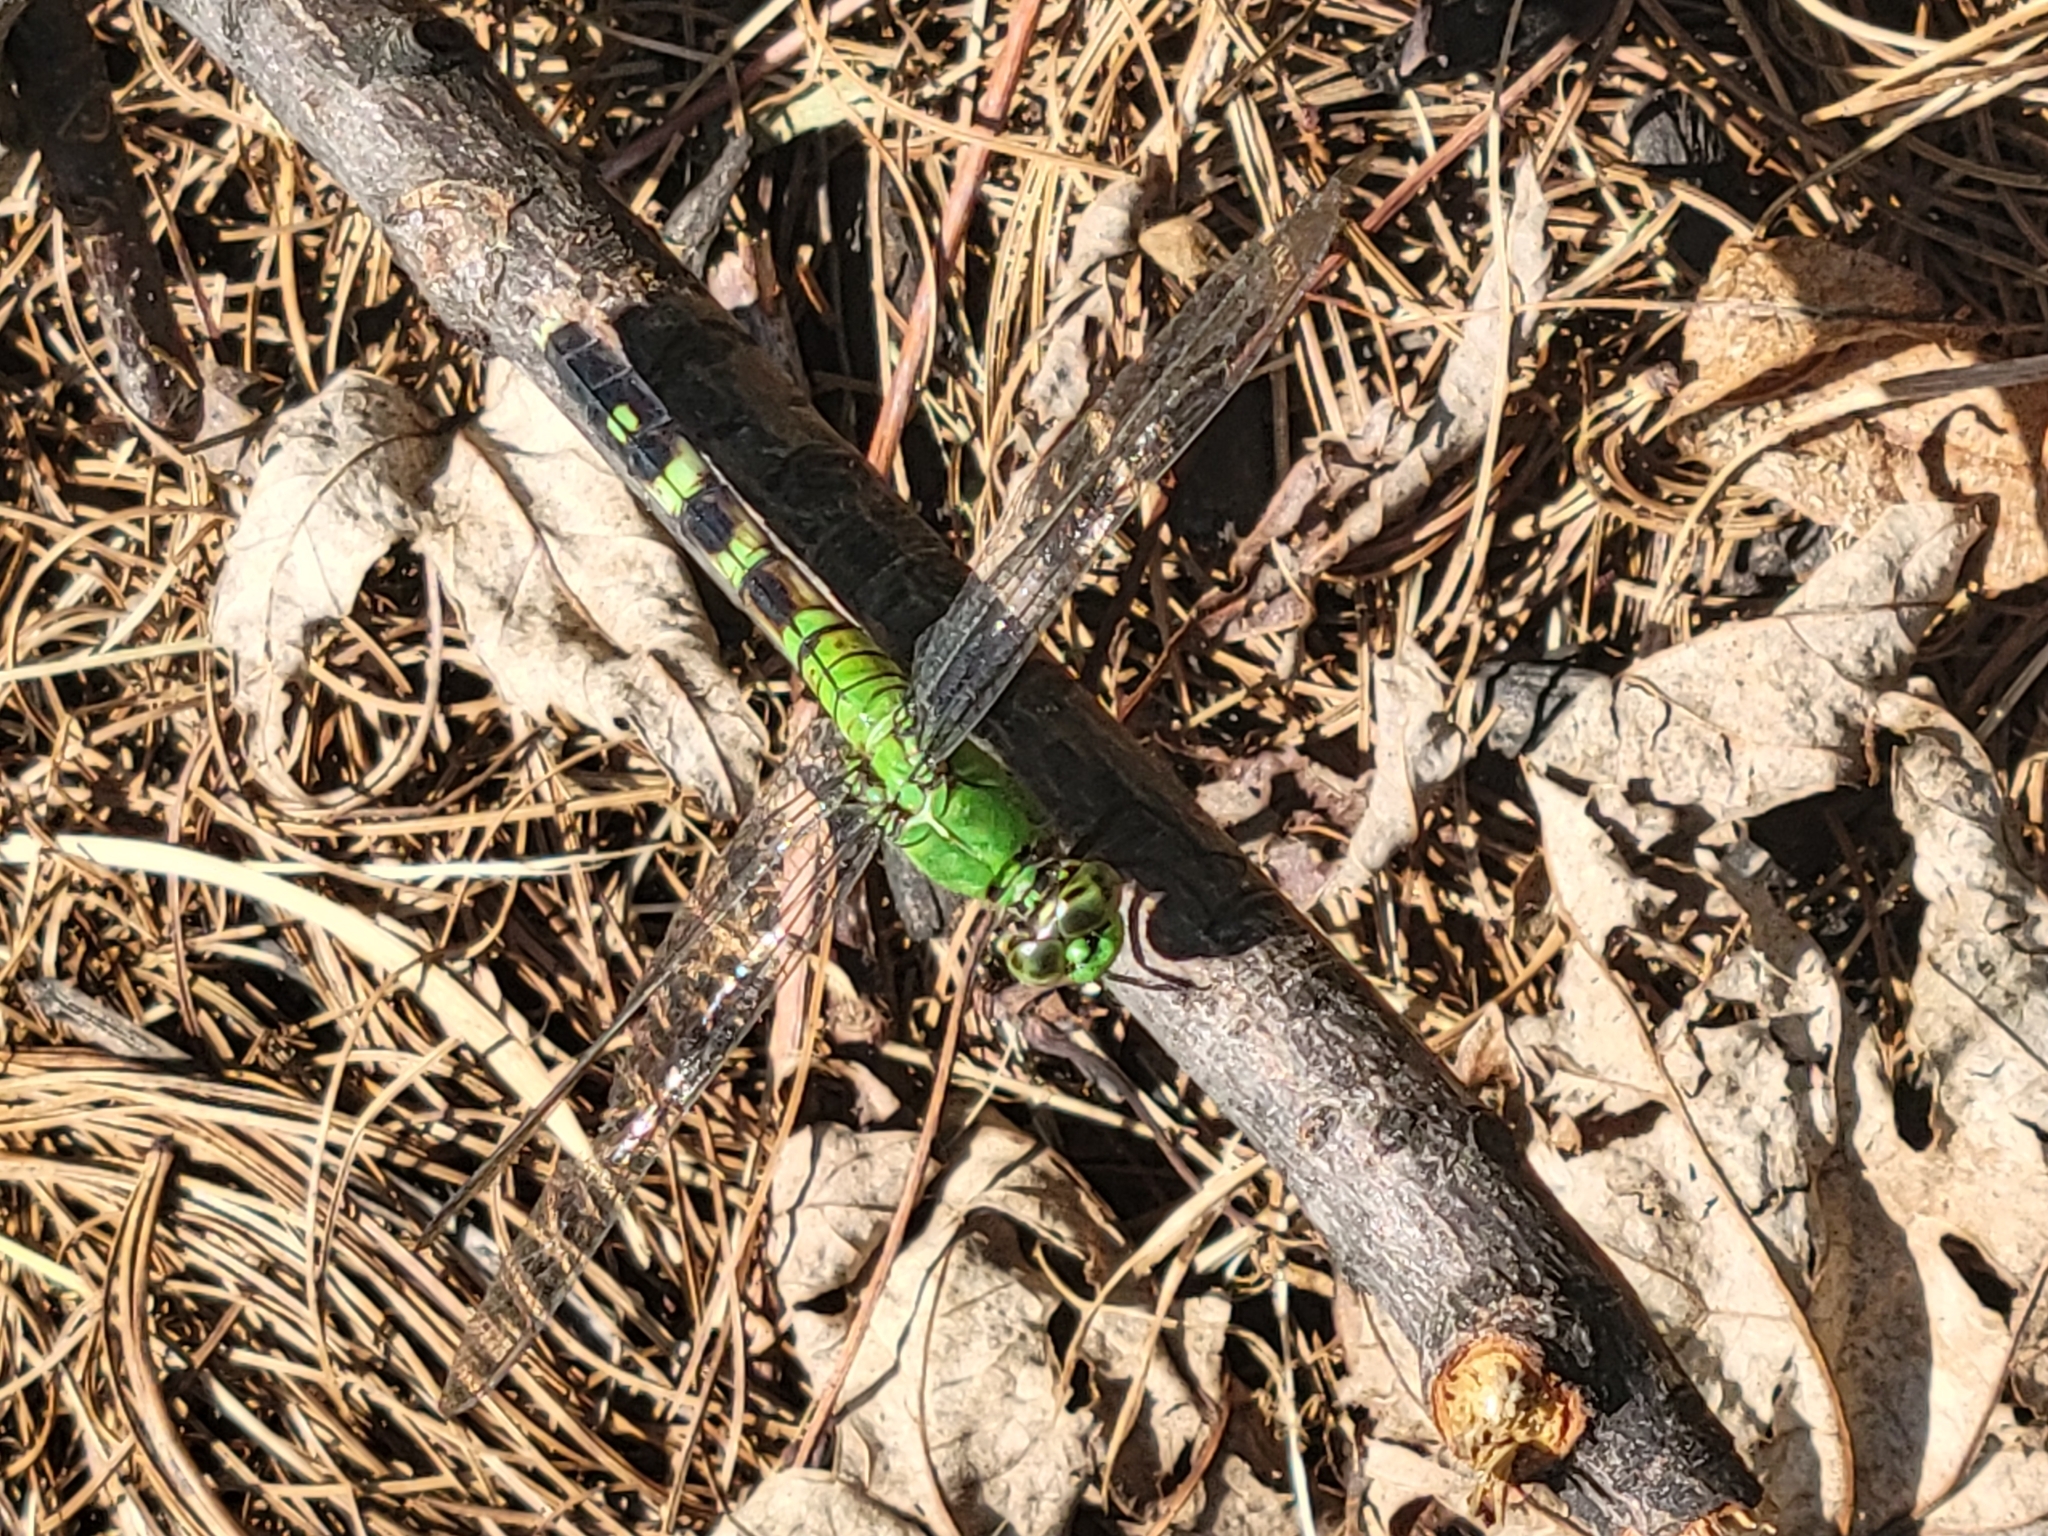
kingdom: Animalia
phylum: Arthropoda
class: Insecta
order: Odonata
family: Libellulidae
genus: Erythemis
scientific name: Erythemis simplicicollis
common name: Eastern pondhawk
